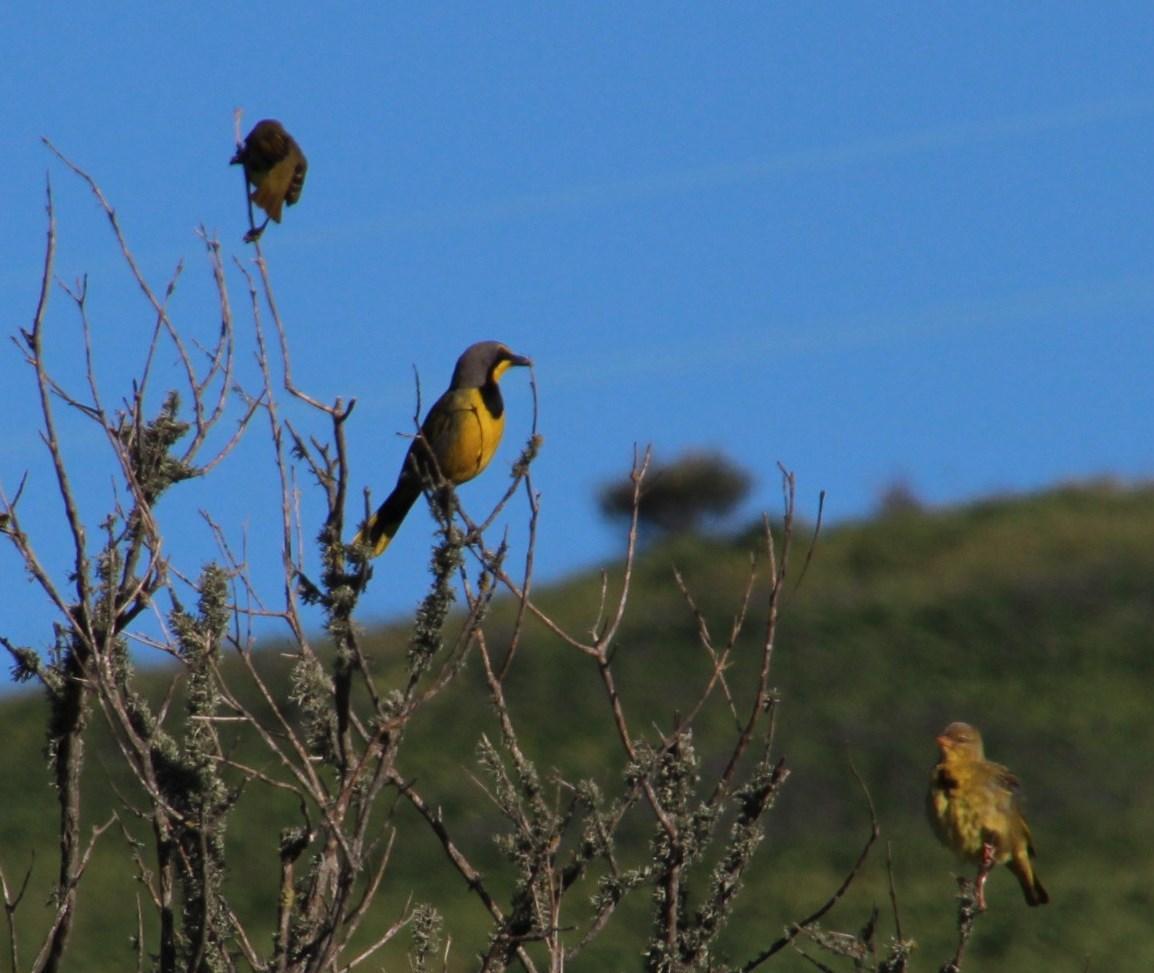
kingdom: Animalia
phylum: Chordata
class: Aves
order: Passeriformes
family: Malaconotidae
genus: Telophorus
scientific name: Telophorus zeylonus
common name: Bokmakierie
